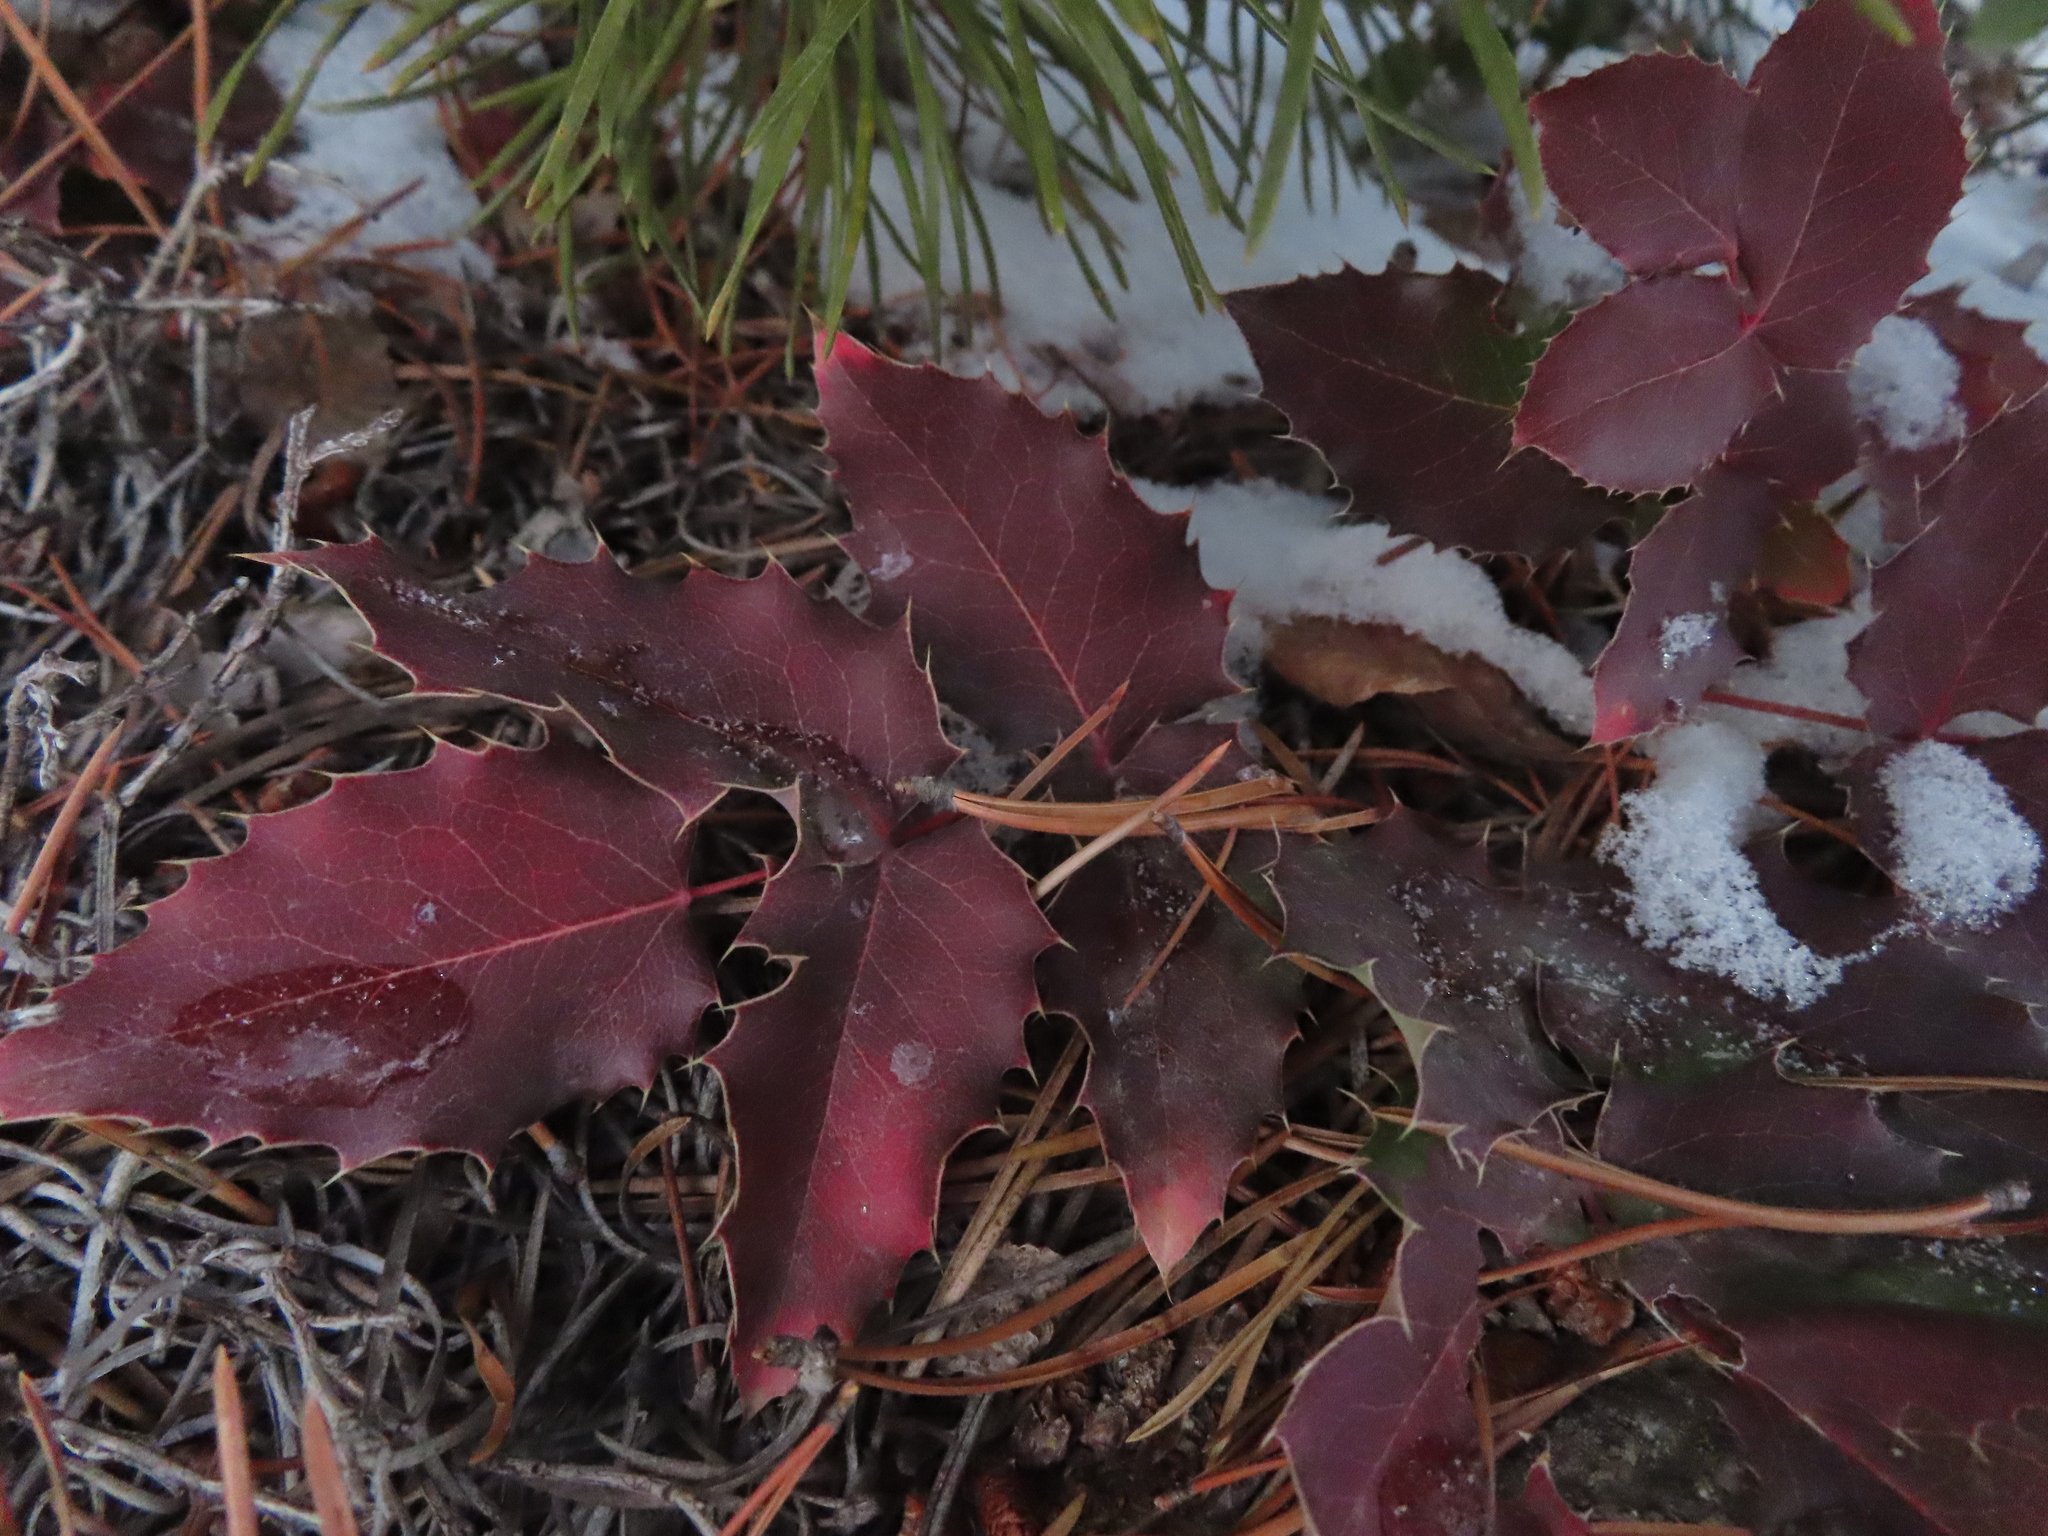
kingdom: Plantae
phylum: Tracheophyta
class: Magnoliopsida
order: Ranunculales
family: Berberidaceae
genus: Mahonia
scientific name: Mahonia repens
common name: Creeping oregon-grape
